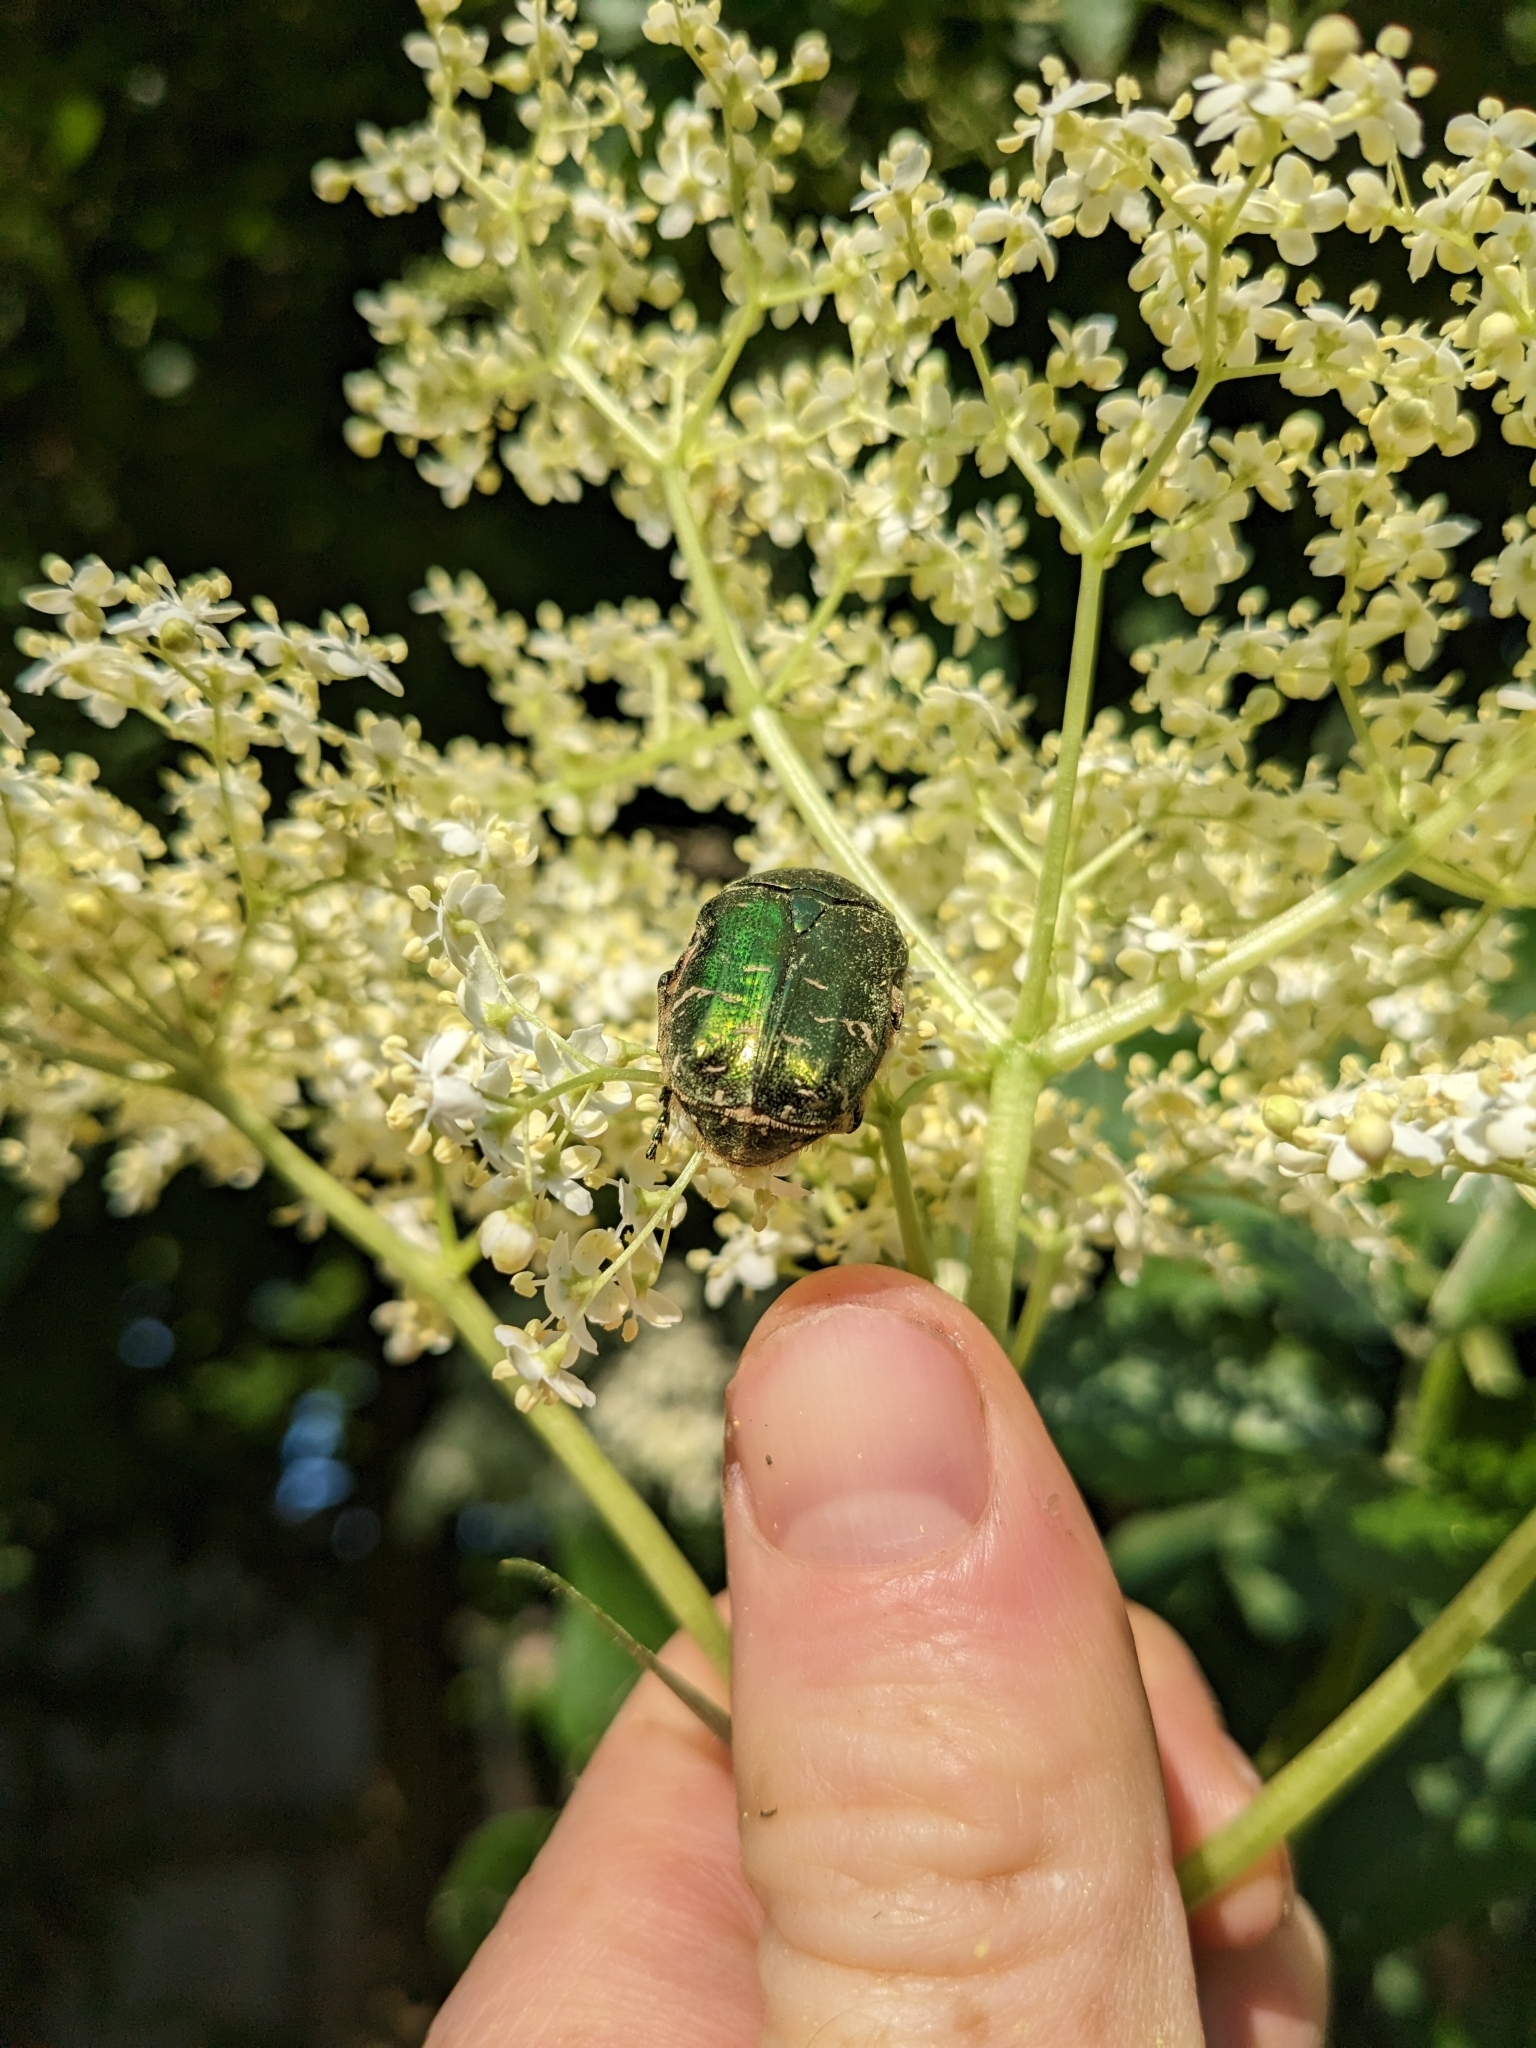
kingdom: Animalia
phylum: Arthropoda
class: Insecta
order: Coleoptera
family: Scarabaeidae
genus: Cetonia
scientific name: Cetonia aurata
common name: Rose chafer
